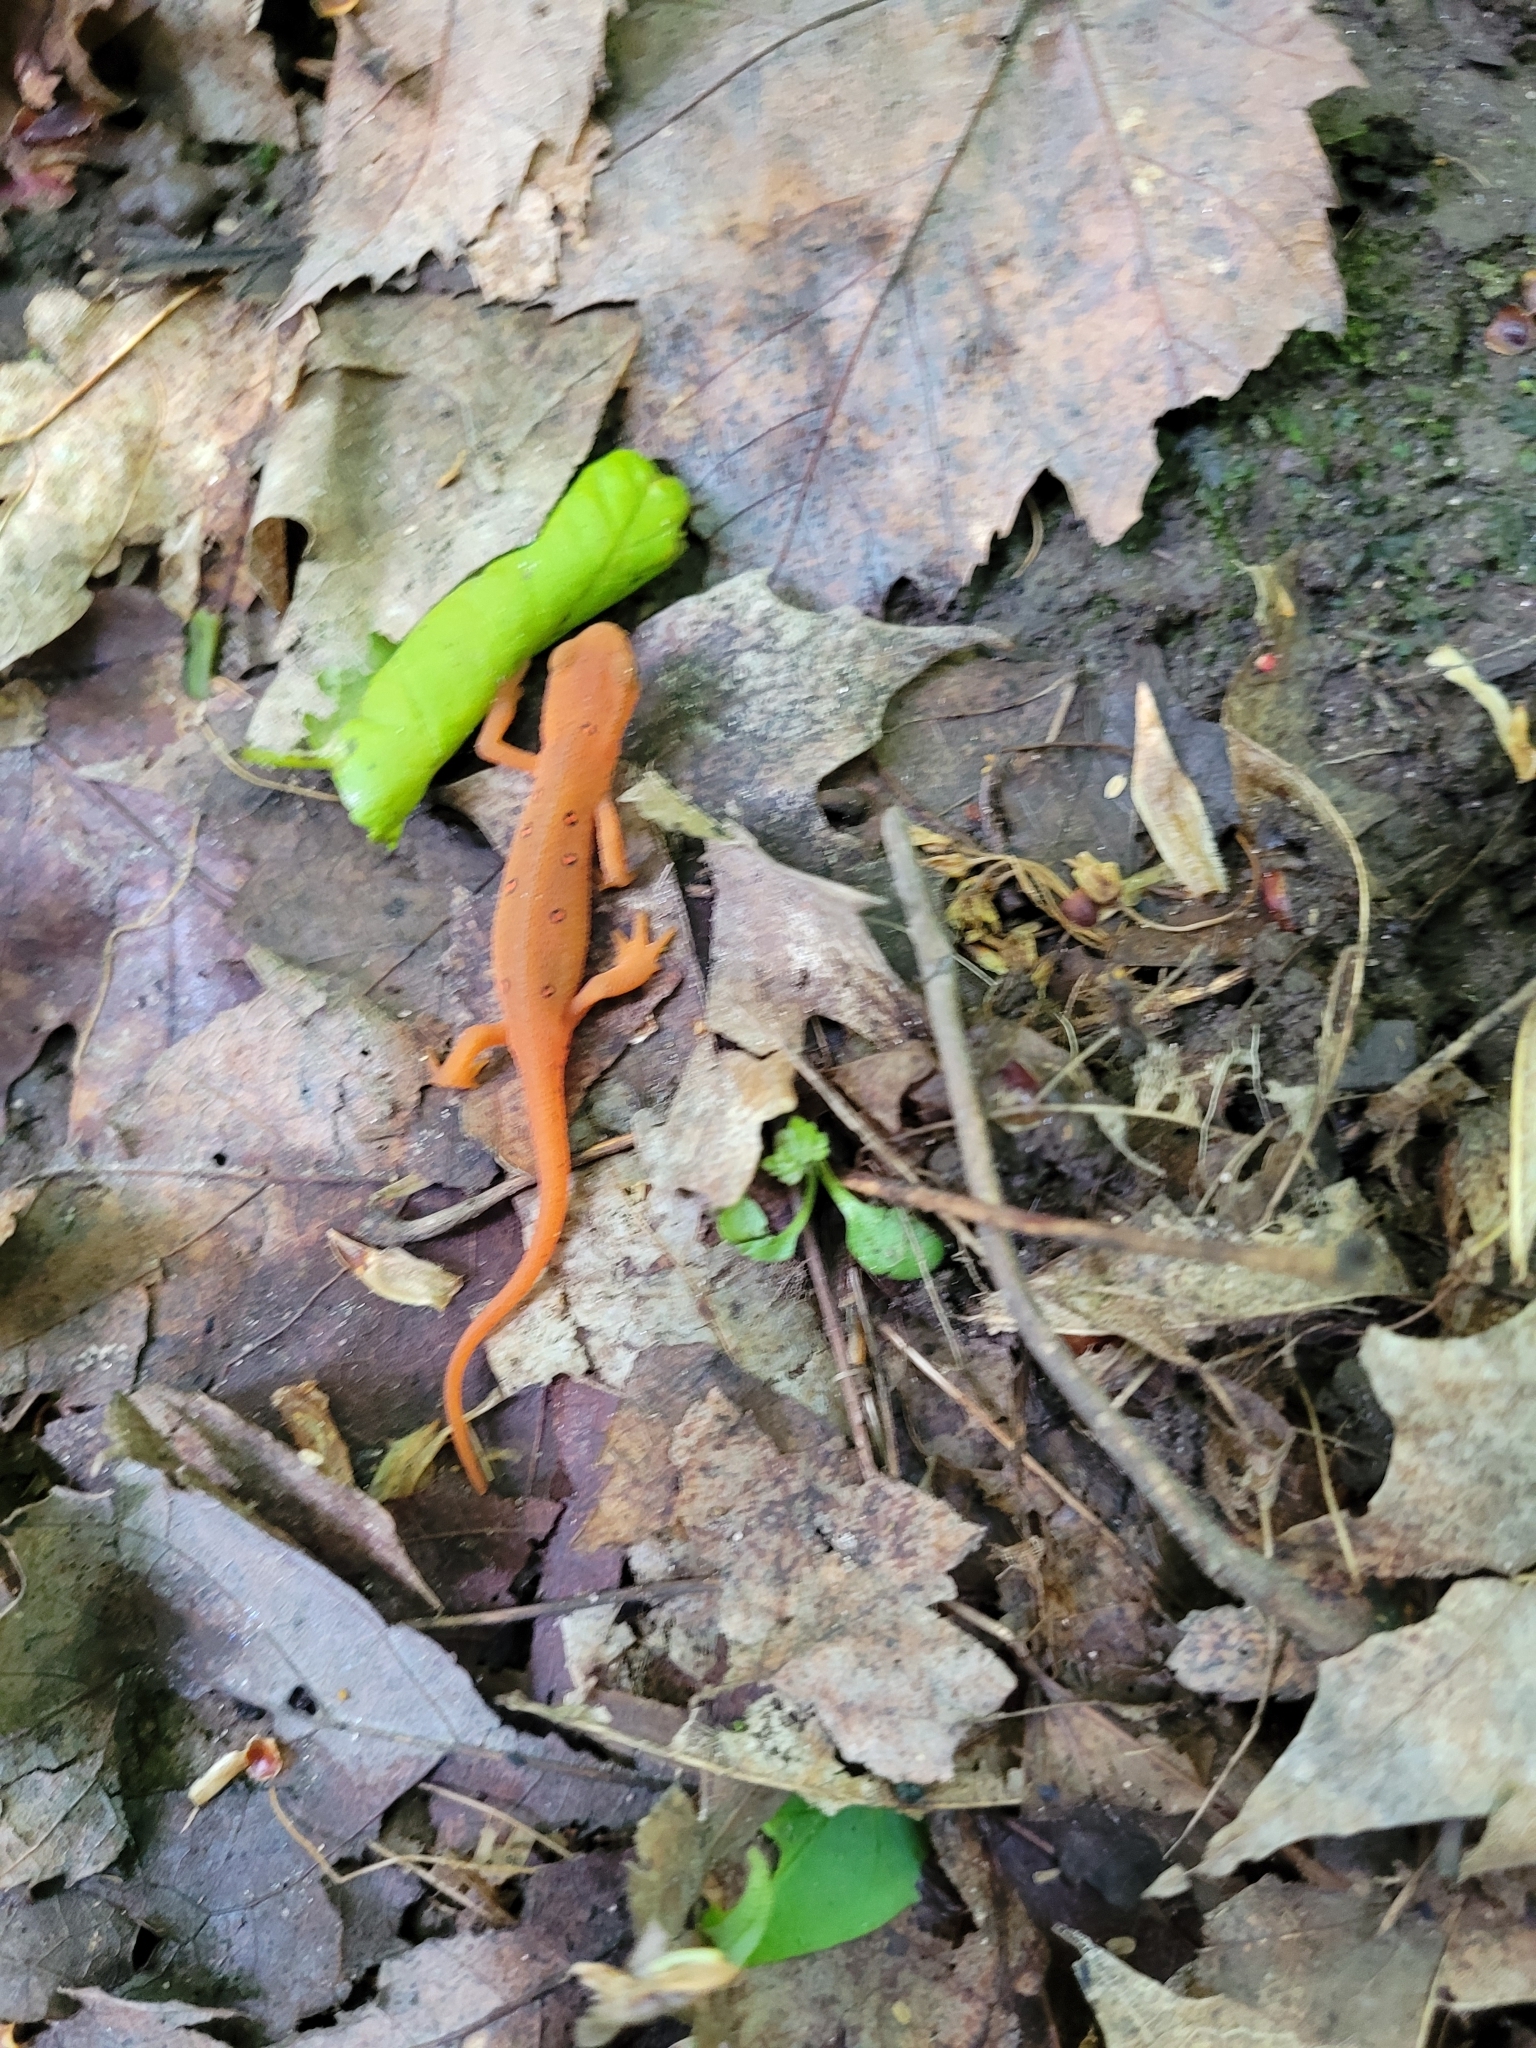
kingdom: Animalia
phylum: Chordata
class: Amphibia
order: Caudata
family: Salamandridae
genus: Notophthalmus
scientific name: Notophthalmus viridescens
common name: Eastern newt
